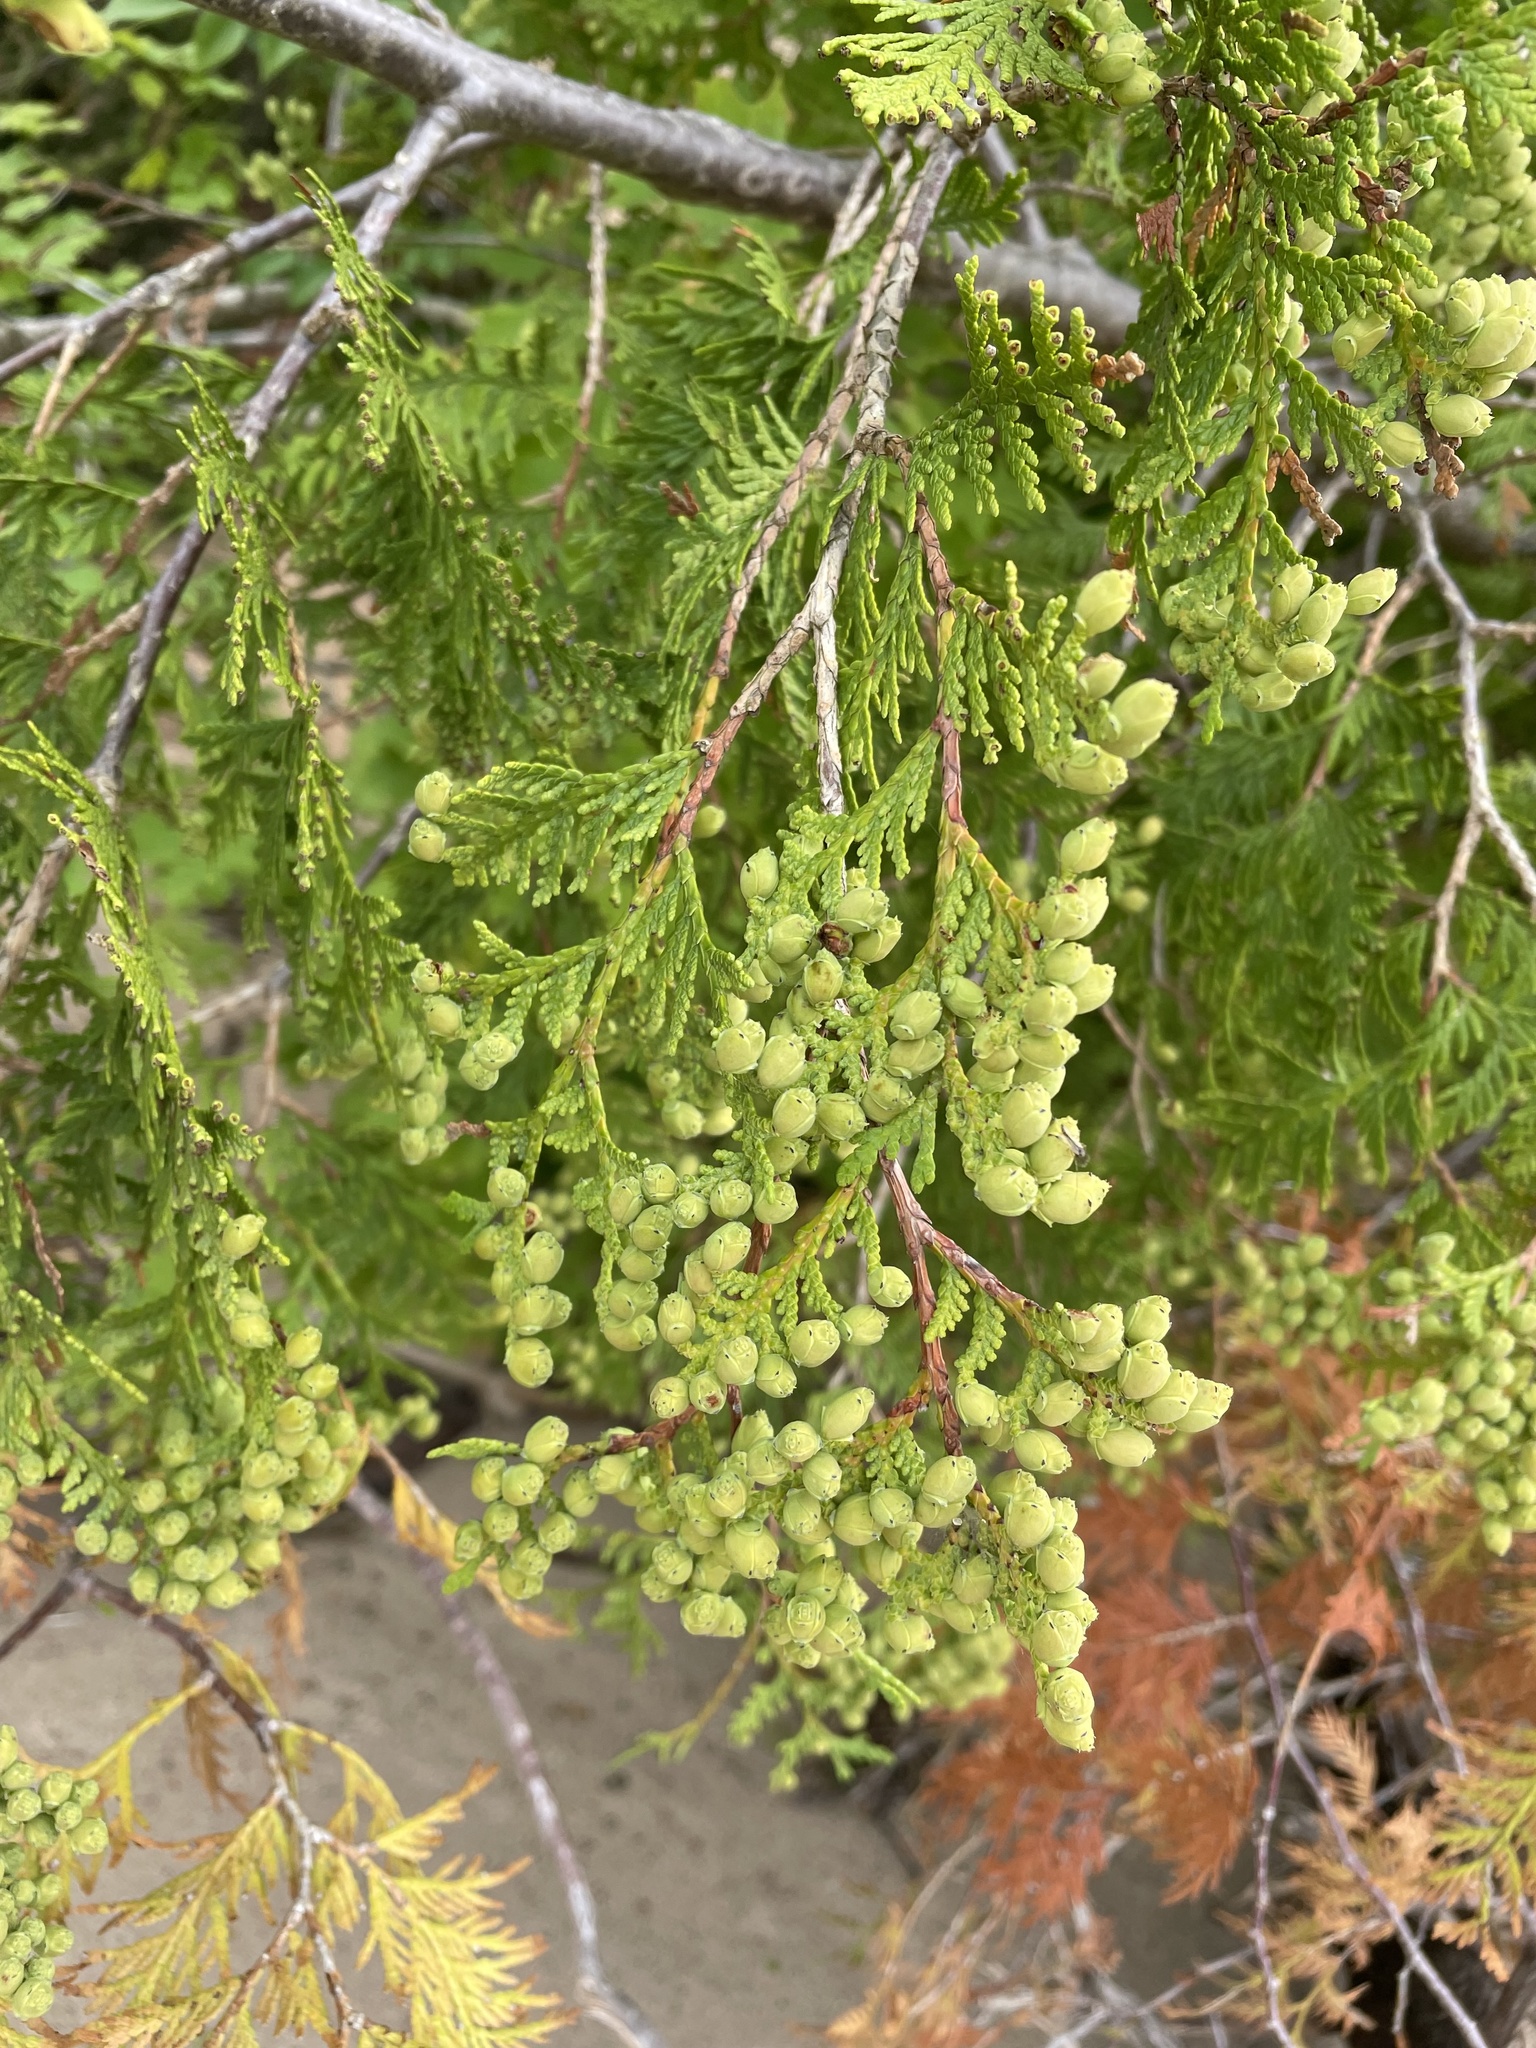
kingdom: Plantae
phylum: Tracheophyta
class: Pinopsida
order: Pinales
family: Cupressaceae
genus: Thuja
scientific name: Thuja occidentalis
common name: Northern white-cedar
